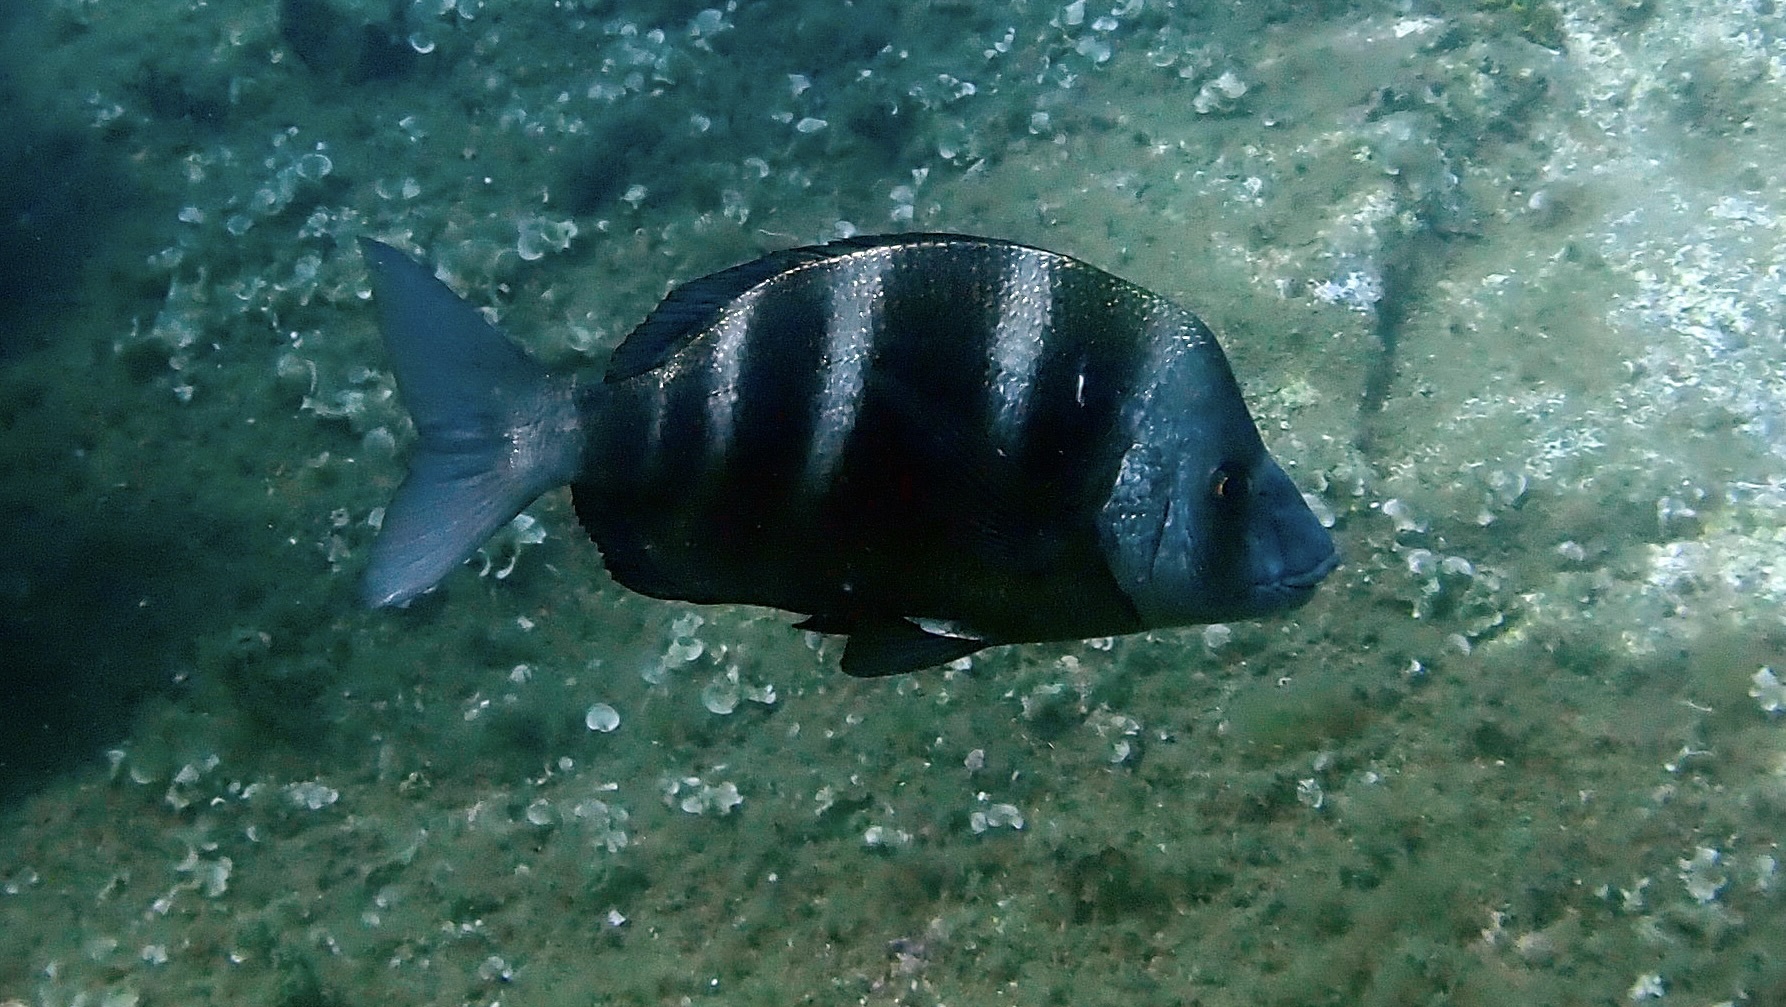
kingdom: Animalia
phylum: Chordata
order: Perciformes
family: Sparidae
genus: Diplodus
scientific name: Diplodus cervinus
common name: Oman porgy
